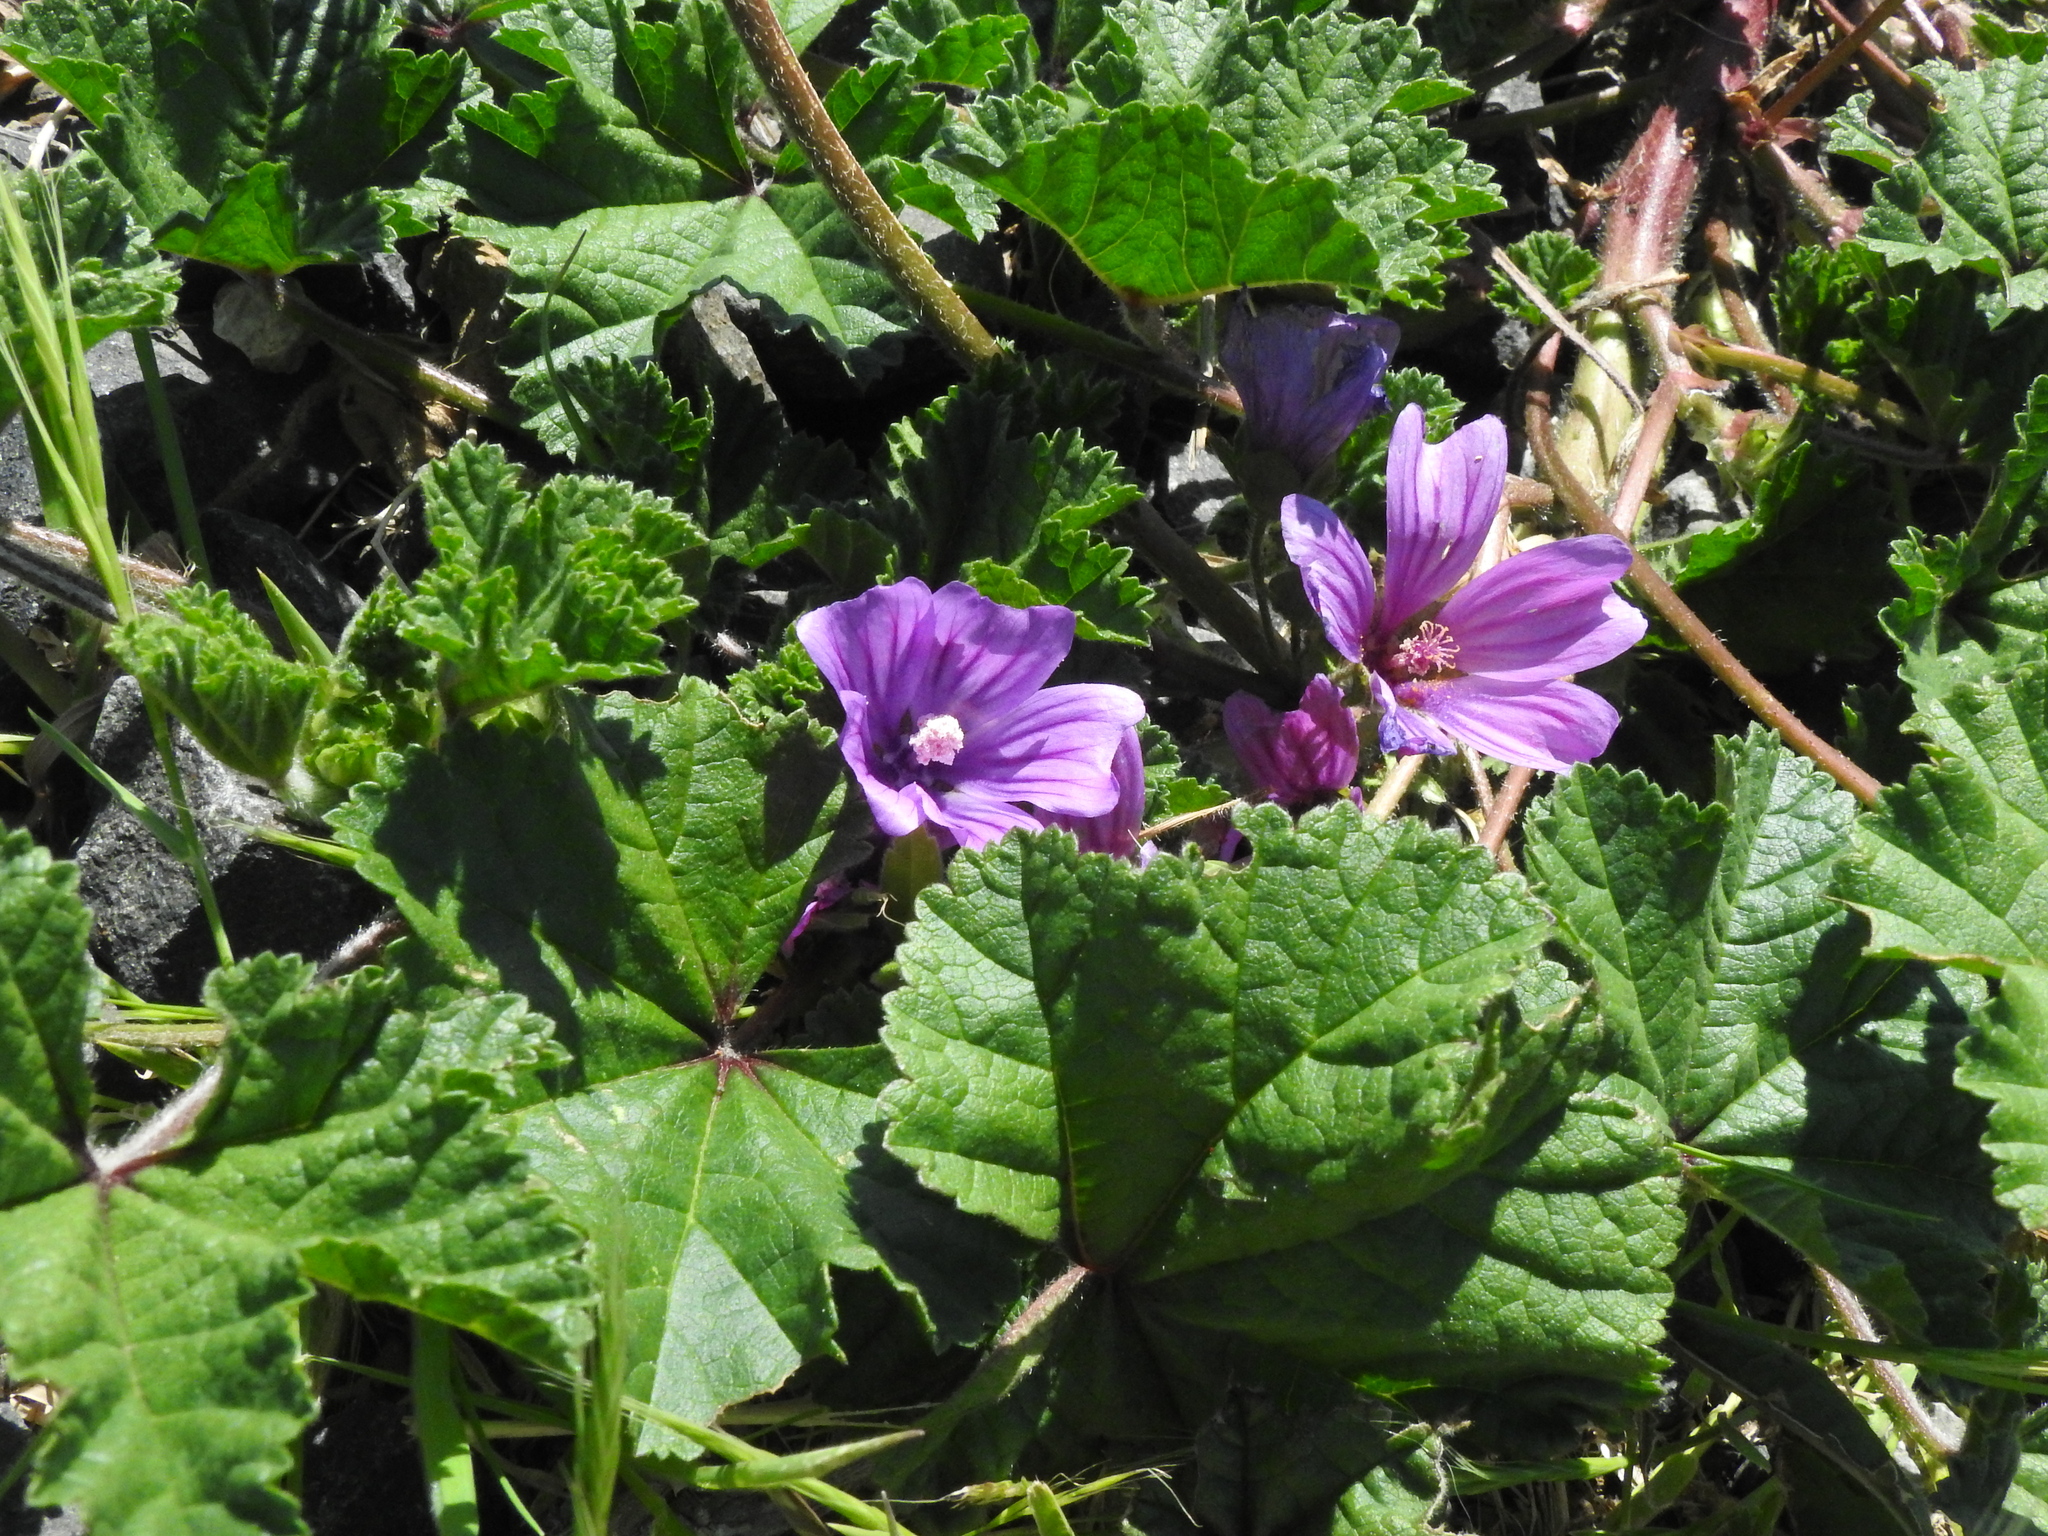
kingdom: Plantae
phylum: Tracheophyta
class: Magnoliopsida
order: Malvales
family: Malvaceae
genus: Malva
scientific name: Malva sylvestris
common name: Common mallow
